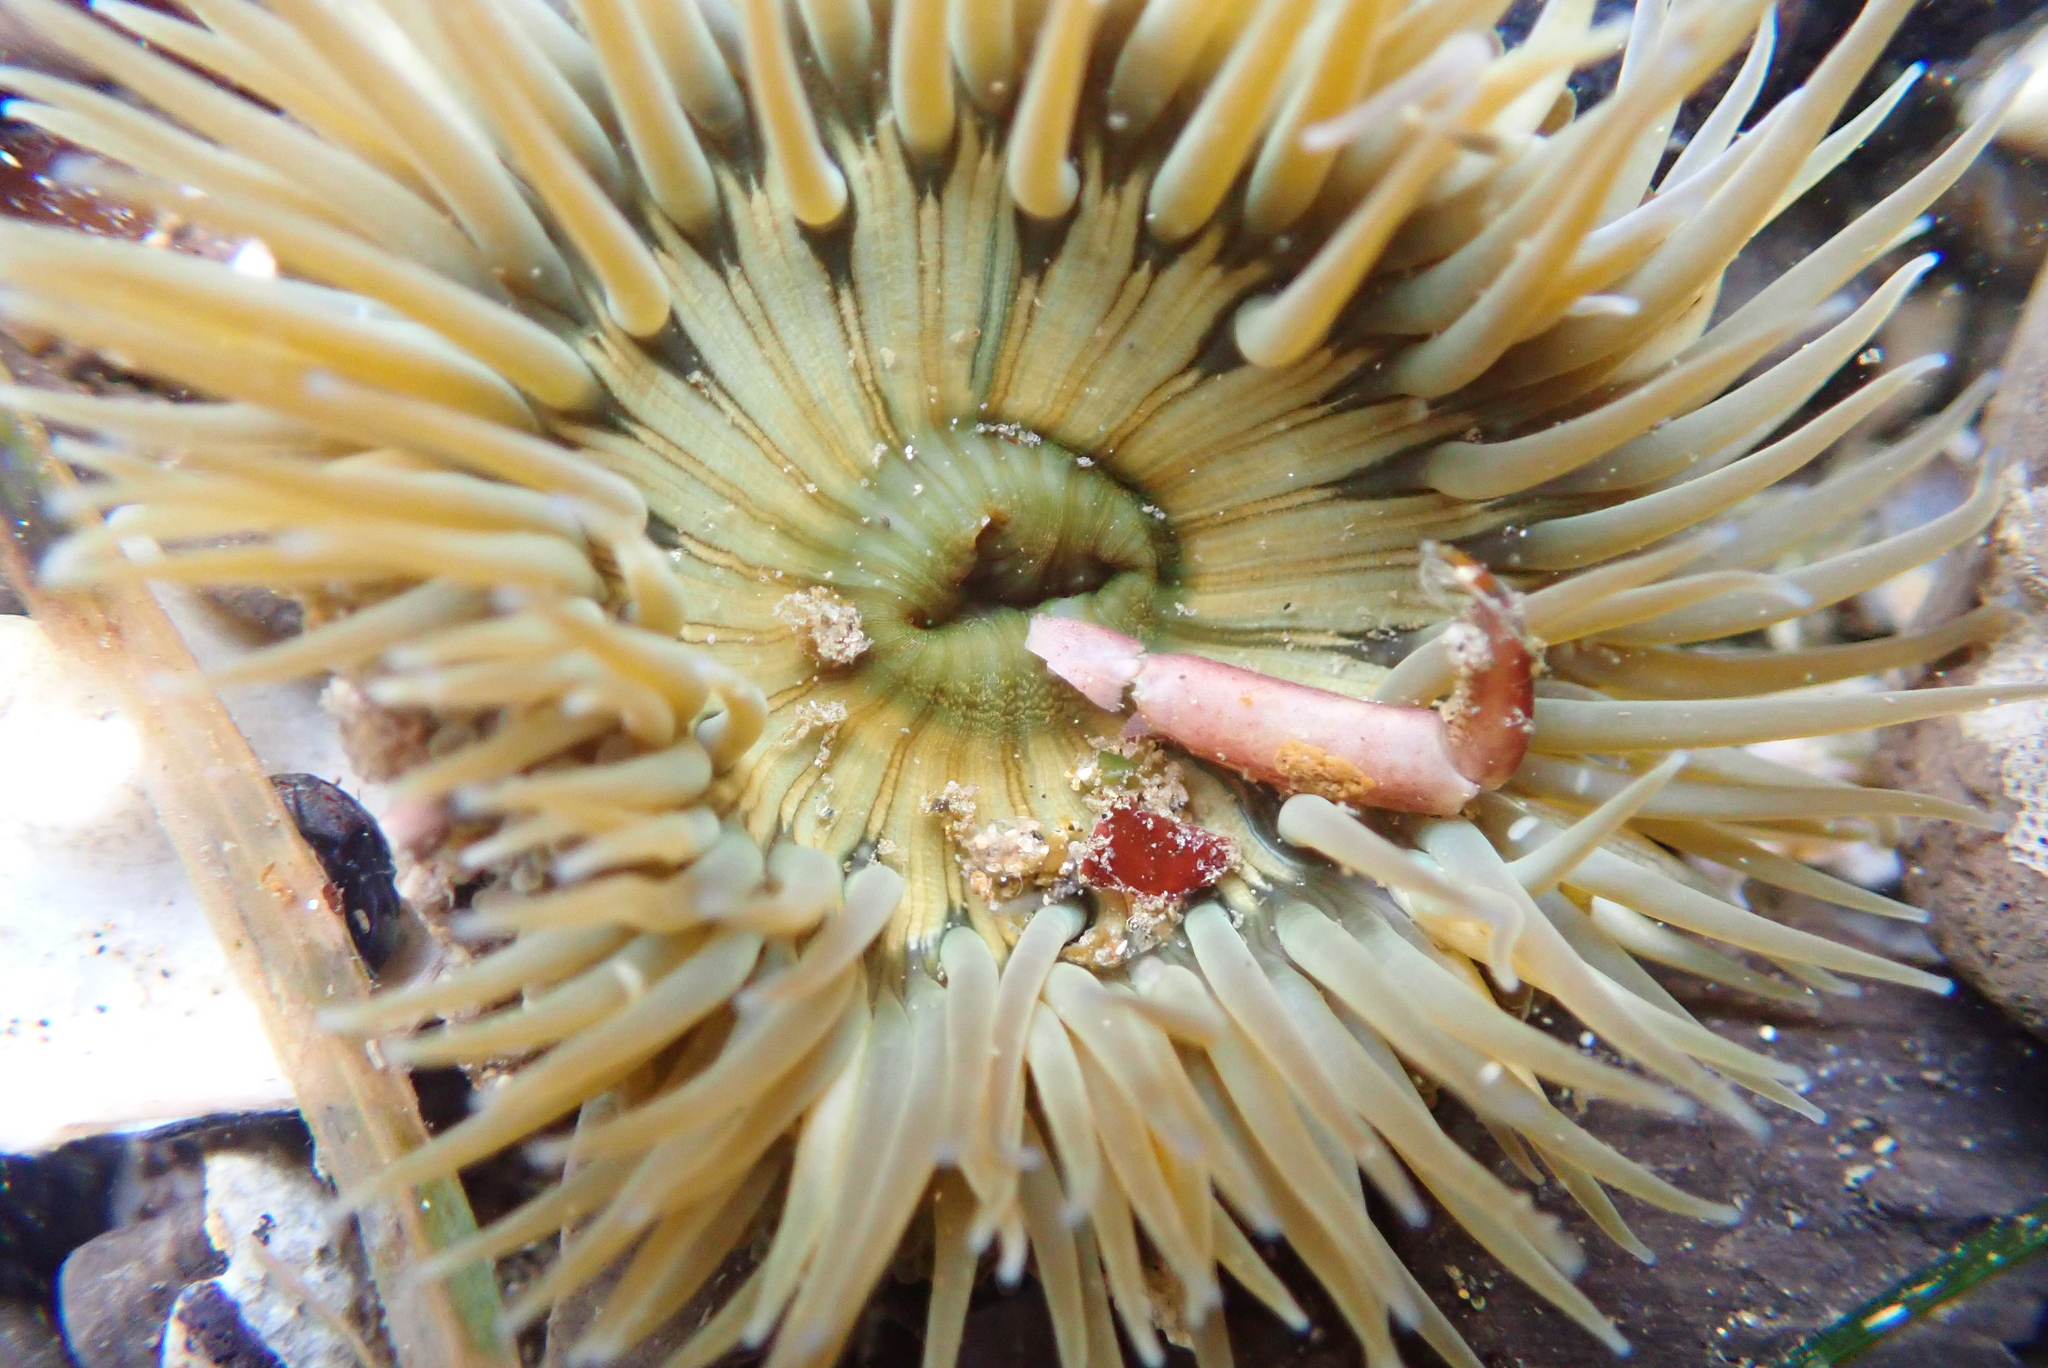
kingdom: Animalia
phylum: Cnidaria
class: Anthozoa
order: Actiniaria
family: Actiniidae
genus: Anthopleura
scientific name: Anthopleura sola
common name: Sun anemone
